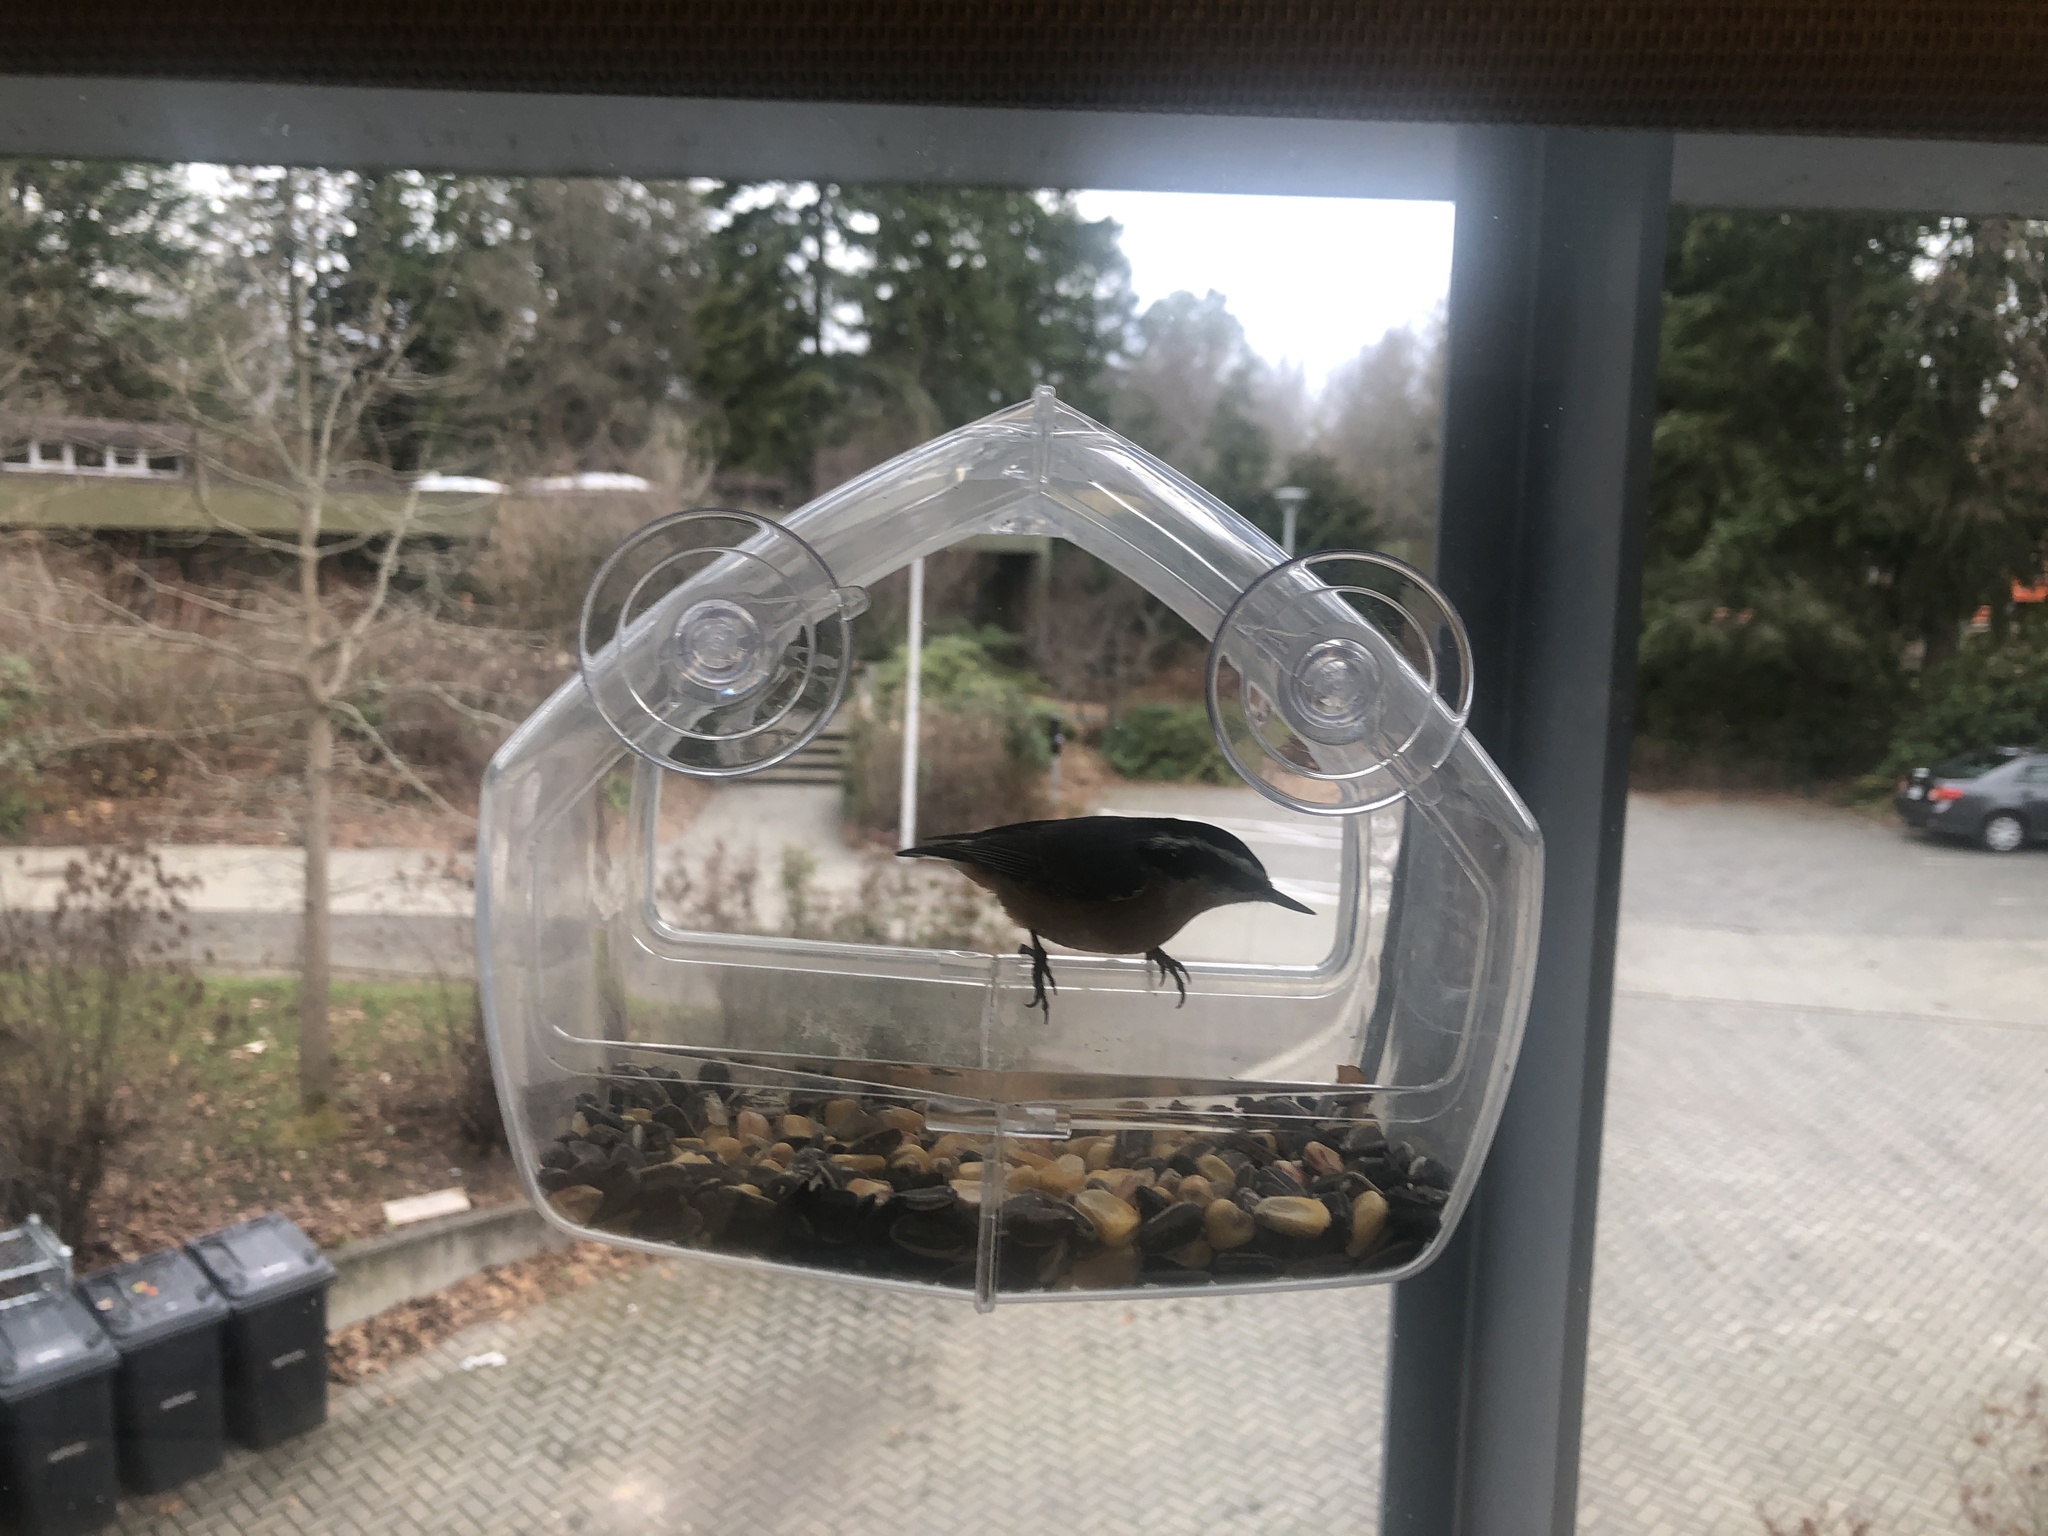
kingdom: Animalia
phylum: Chordata
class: Aves
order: Passeriformes
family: Sittidae
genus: Sitta
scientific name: Sitta canadensis
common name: Red-breasted nuthatch
